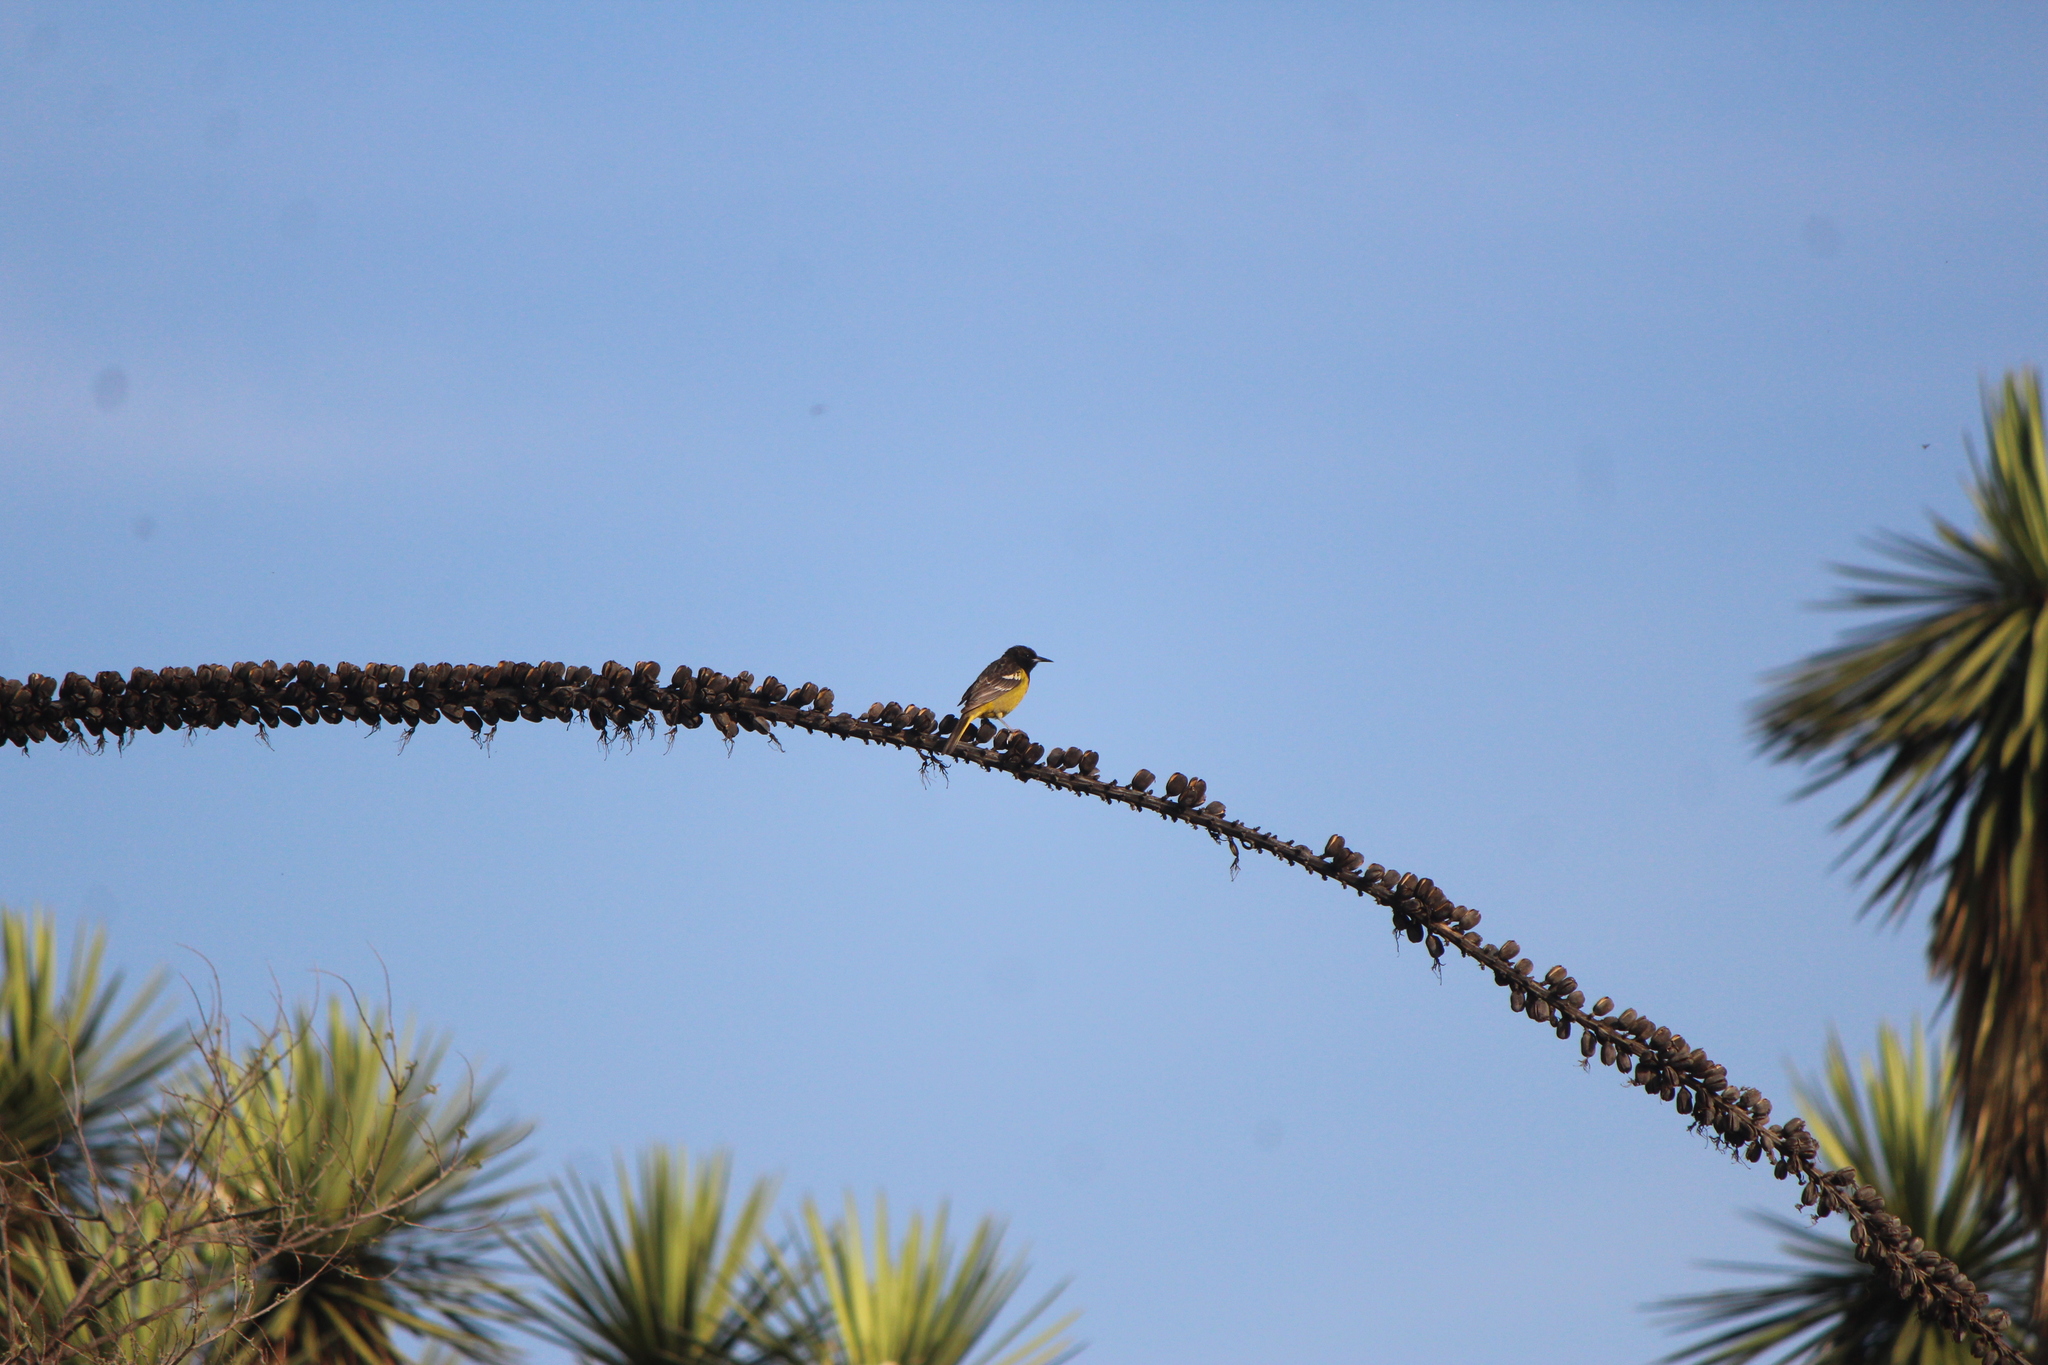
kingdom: Animalia
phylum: Chordata
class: Aves
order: Passeriformes
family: Icteridae
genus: Icterus
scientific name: Icterus parisorum
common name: Scott's oriole
